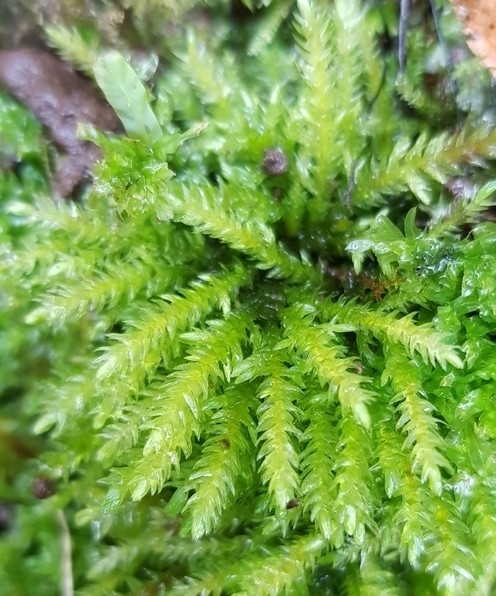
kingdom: Plantae
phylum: Bryophyta
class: Bryopsida
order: Hypnales
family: Neckeraceae
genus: Thamnobryum
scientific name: Thamnobryum alopecurum
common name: Fox-tail feather-moss
